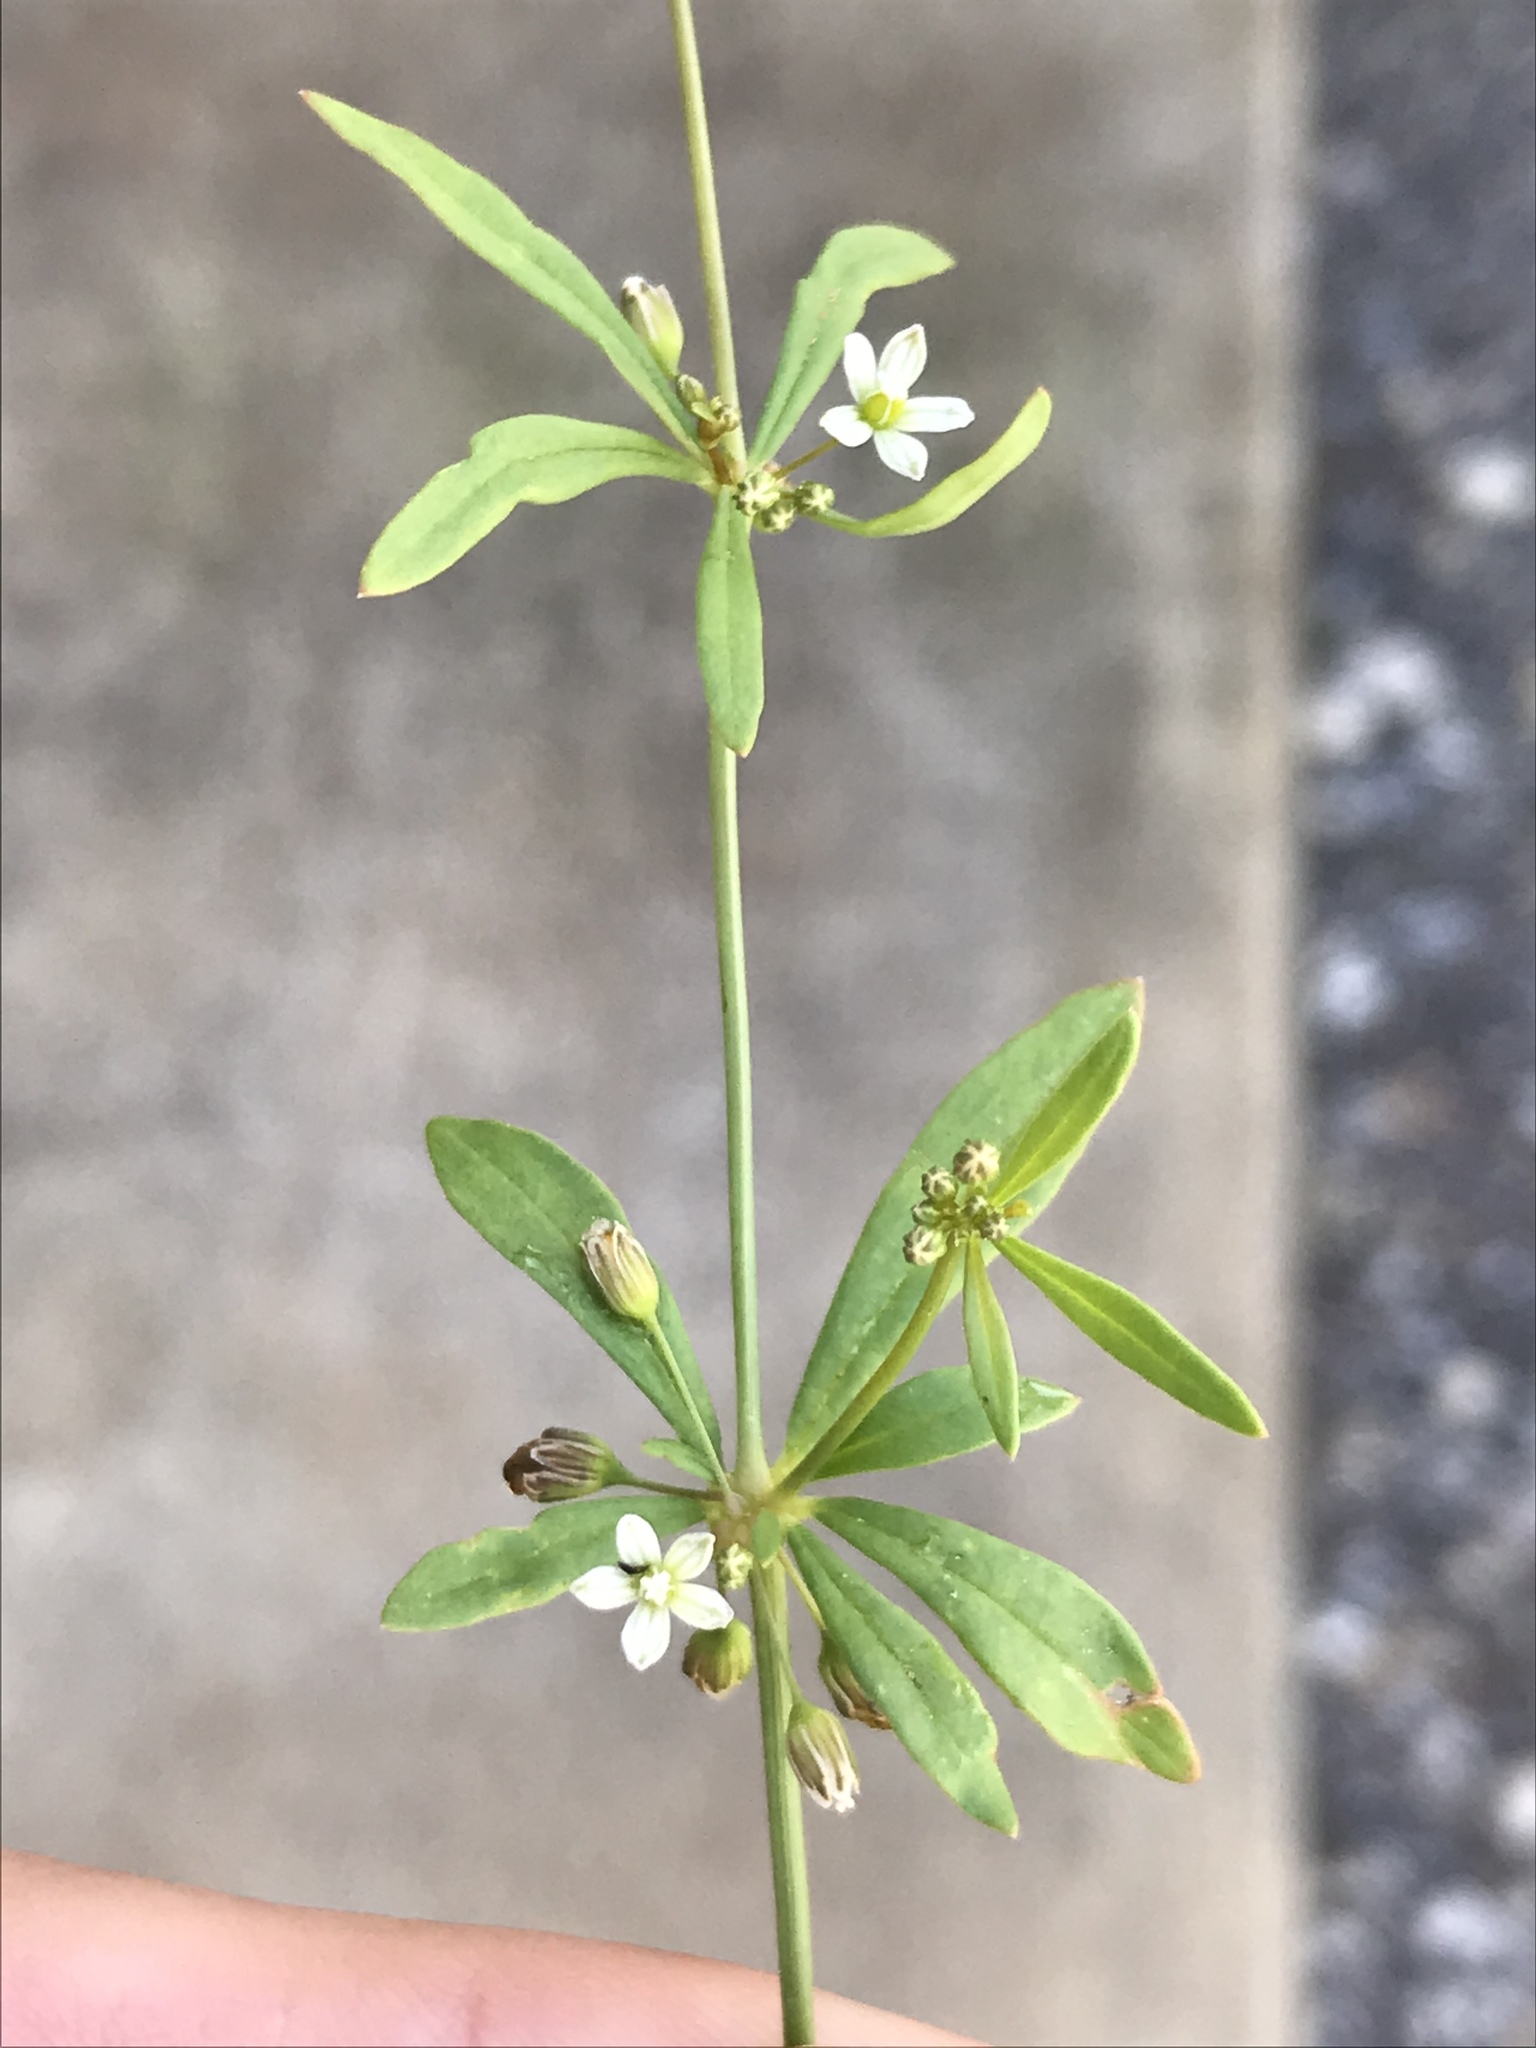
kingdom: Plantae
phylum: Tracheophyta
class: Magnoliopsida
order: Caryophyllales
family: Molluginaceae
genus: Mollugo
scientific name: Mollugo verticillata
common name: Green carpetweed
